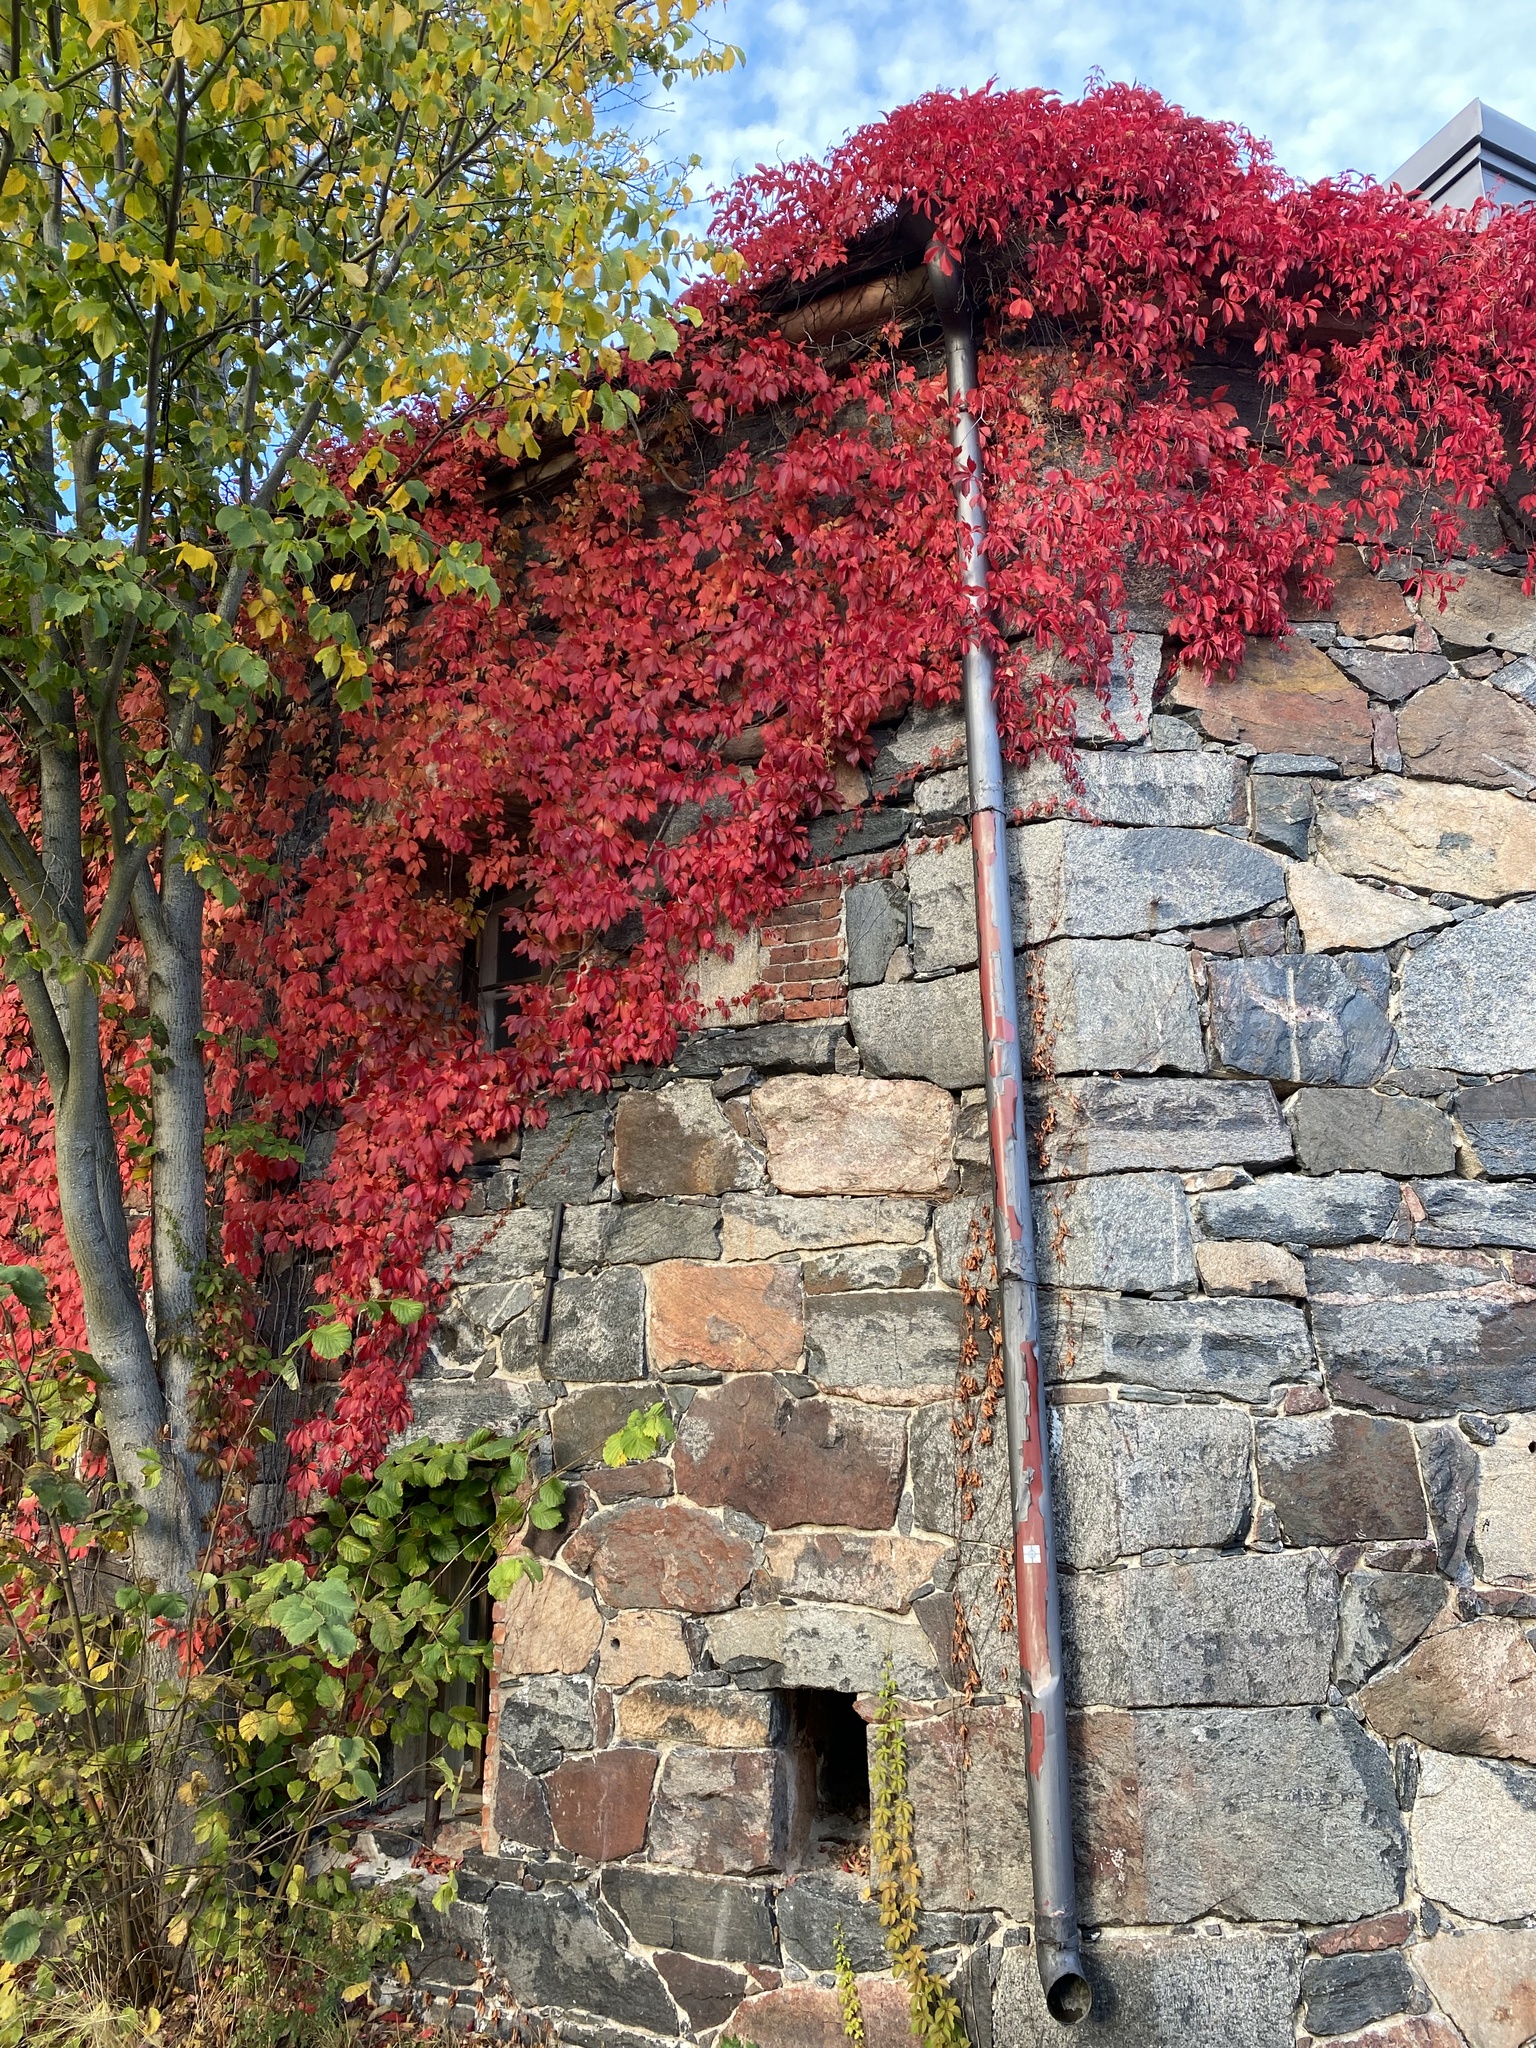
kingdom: Plantae
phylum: Tracheophyta
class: Magnoliopsida
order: Vitales
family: Vitaceae
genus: Parthenocissus
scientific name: Parthenocissus quinquefolia
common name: Virginia-creeper
